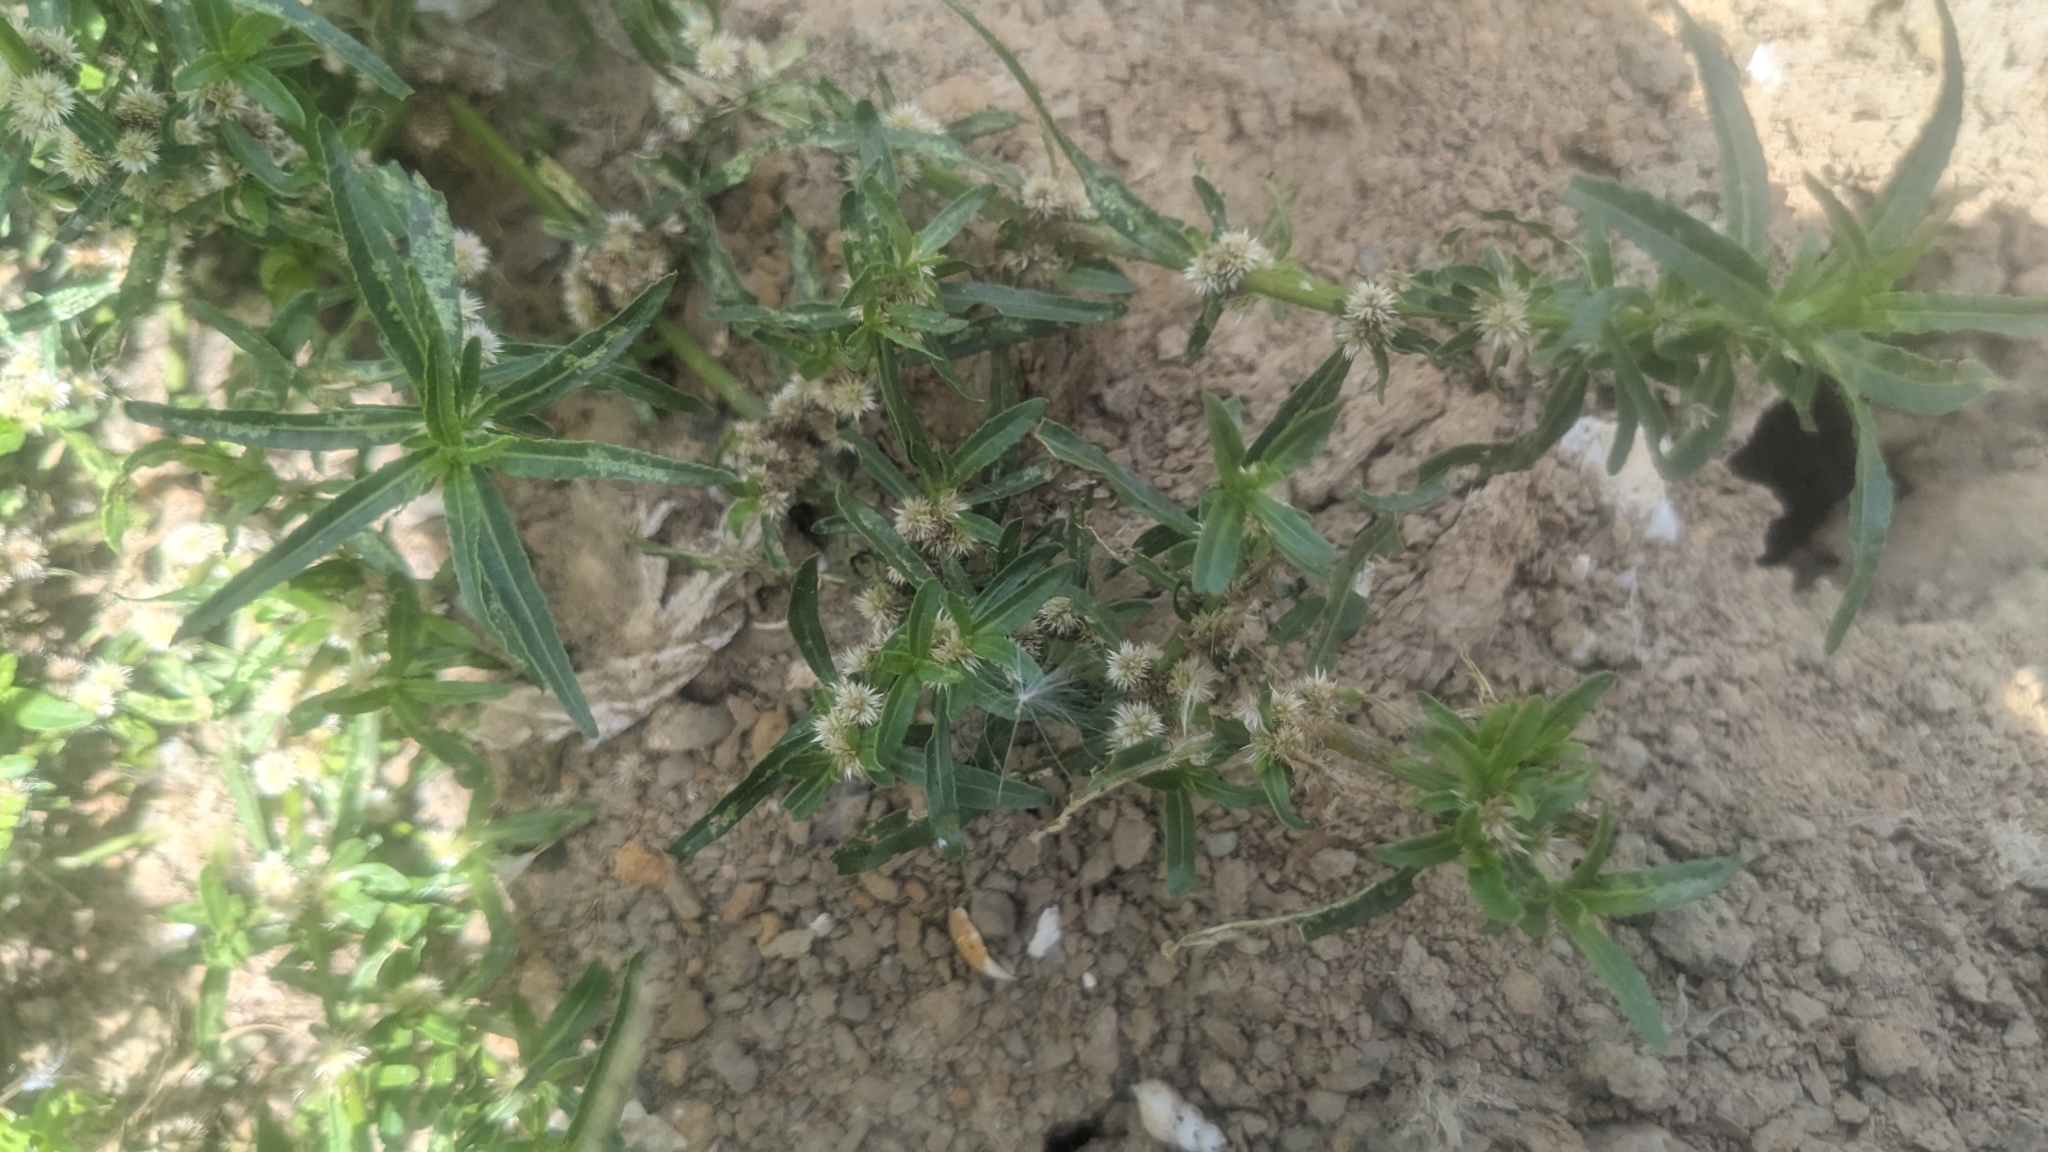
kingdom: Plantae
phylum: Tracheophyta
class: Magnoliopsida
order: Caryophyllales
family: Amaranthaceae
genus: Alternanthera
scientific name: Alternanthera sessilis
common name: Sessile joyweed
